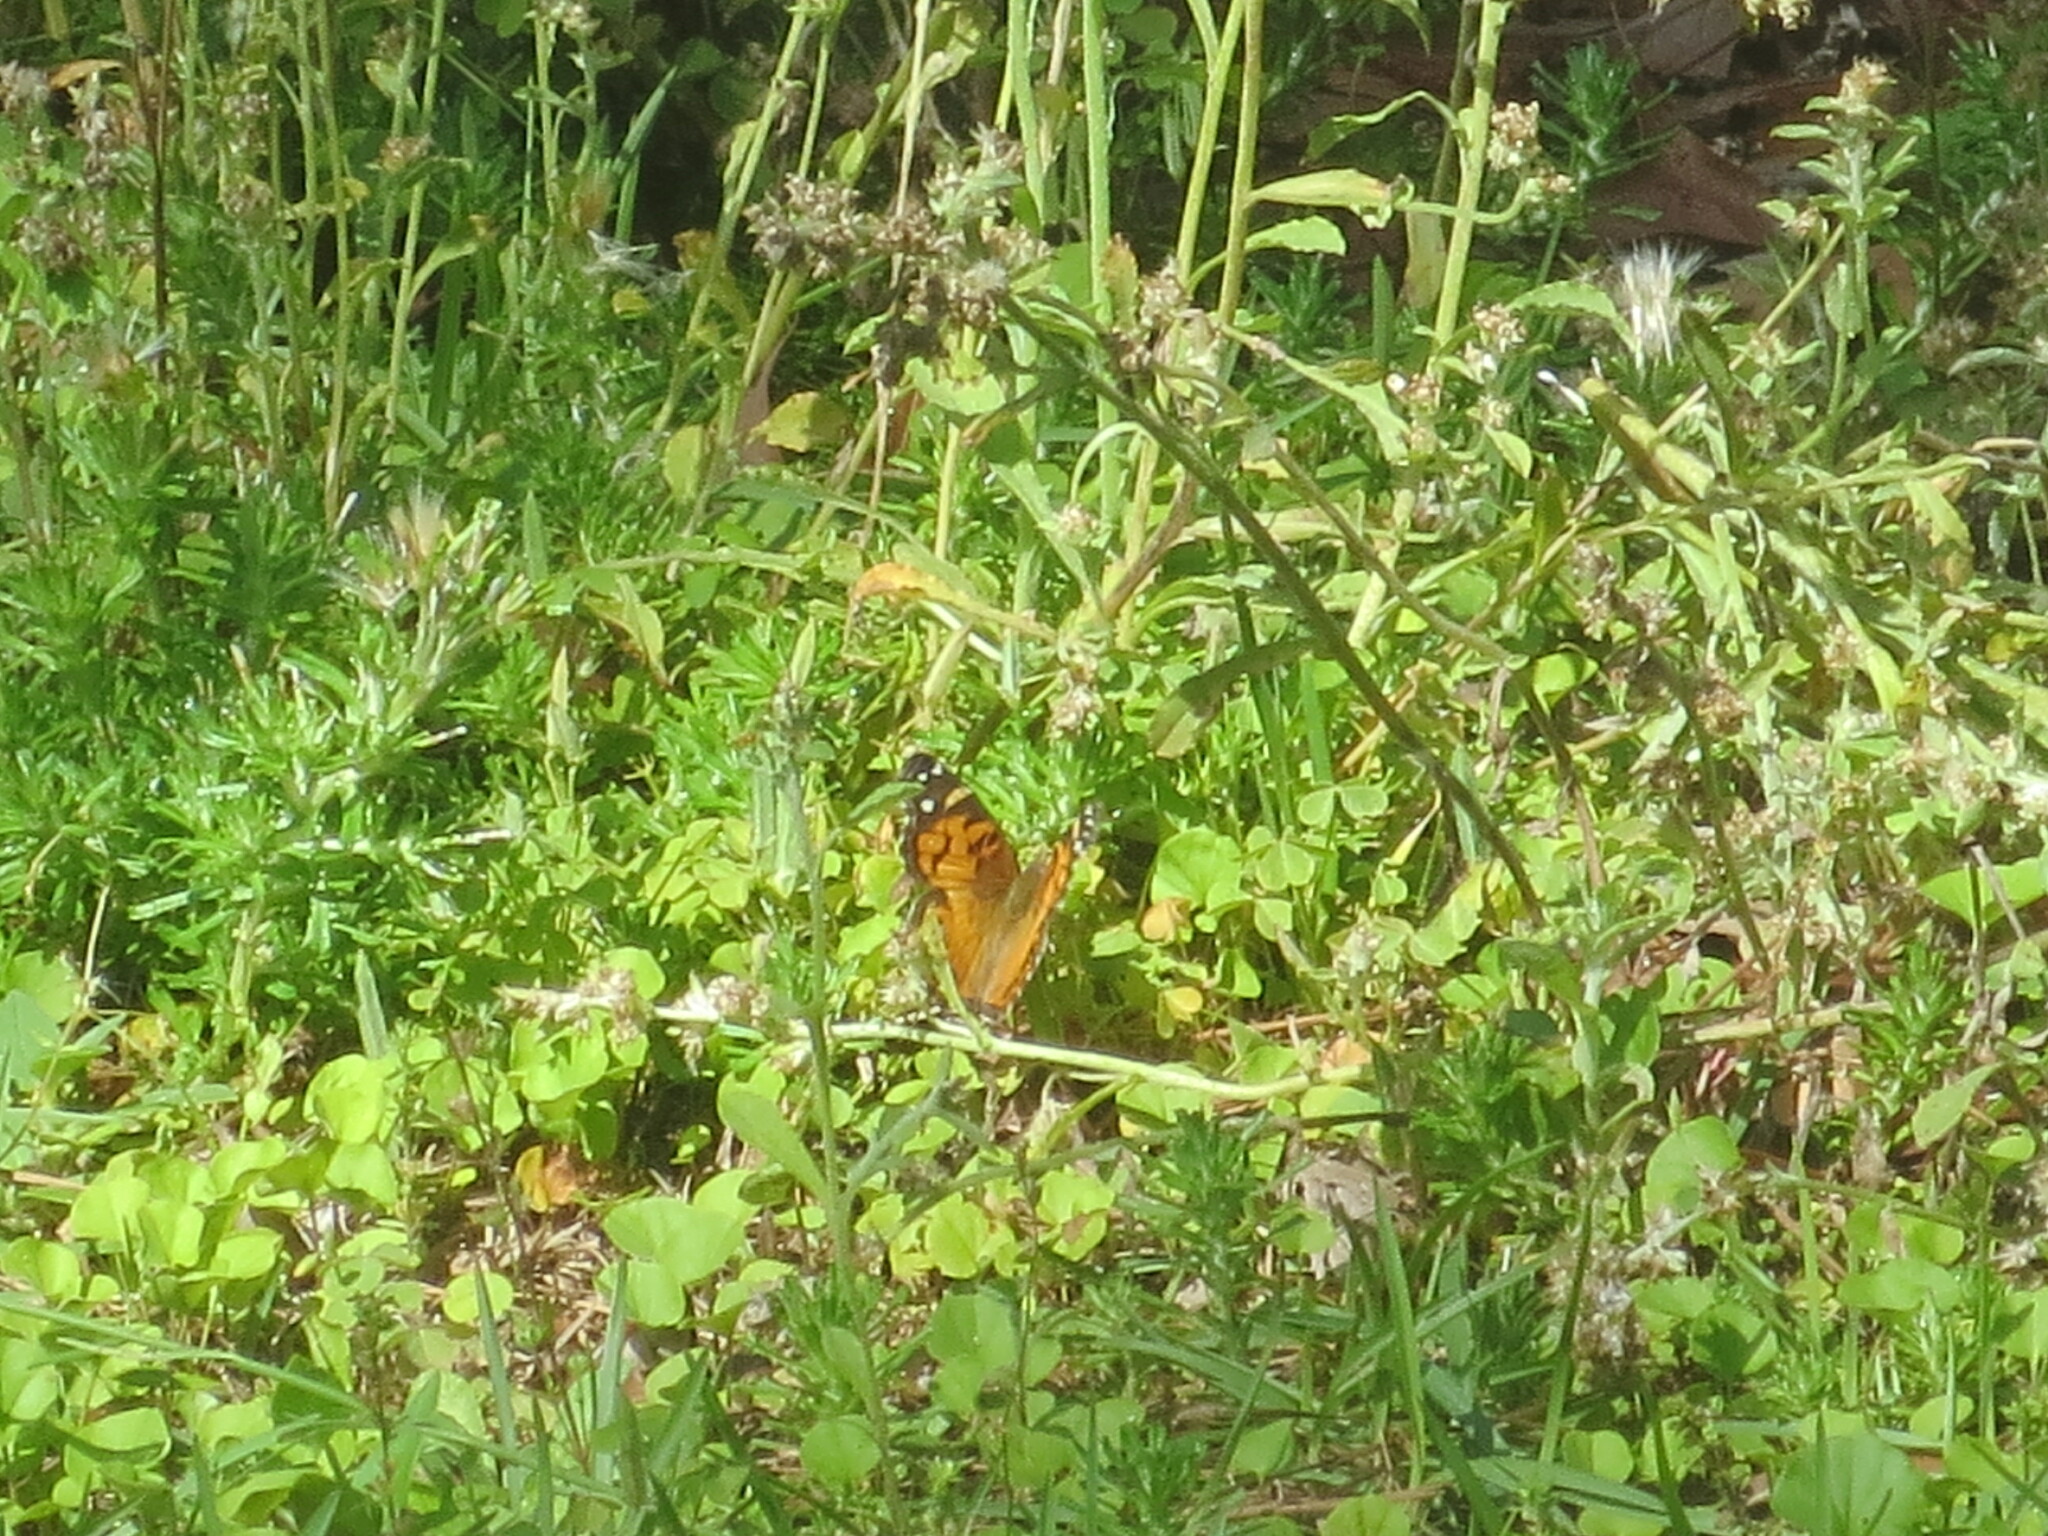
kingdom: Animalia
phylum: Arthropoda
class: Insecta
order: Lepidoptera
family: Nymphalidae
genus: Vanessa
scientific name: Vanessa virginiensis
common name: American lady
